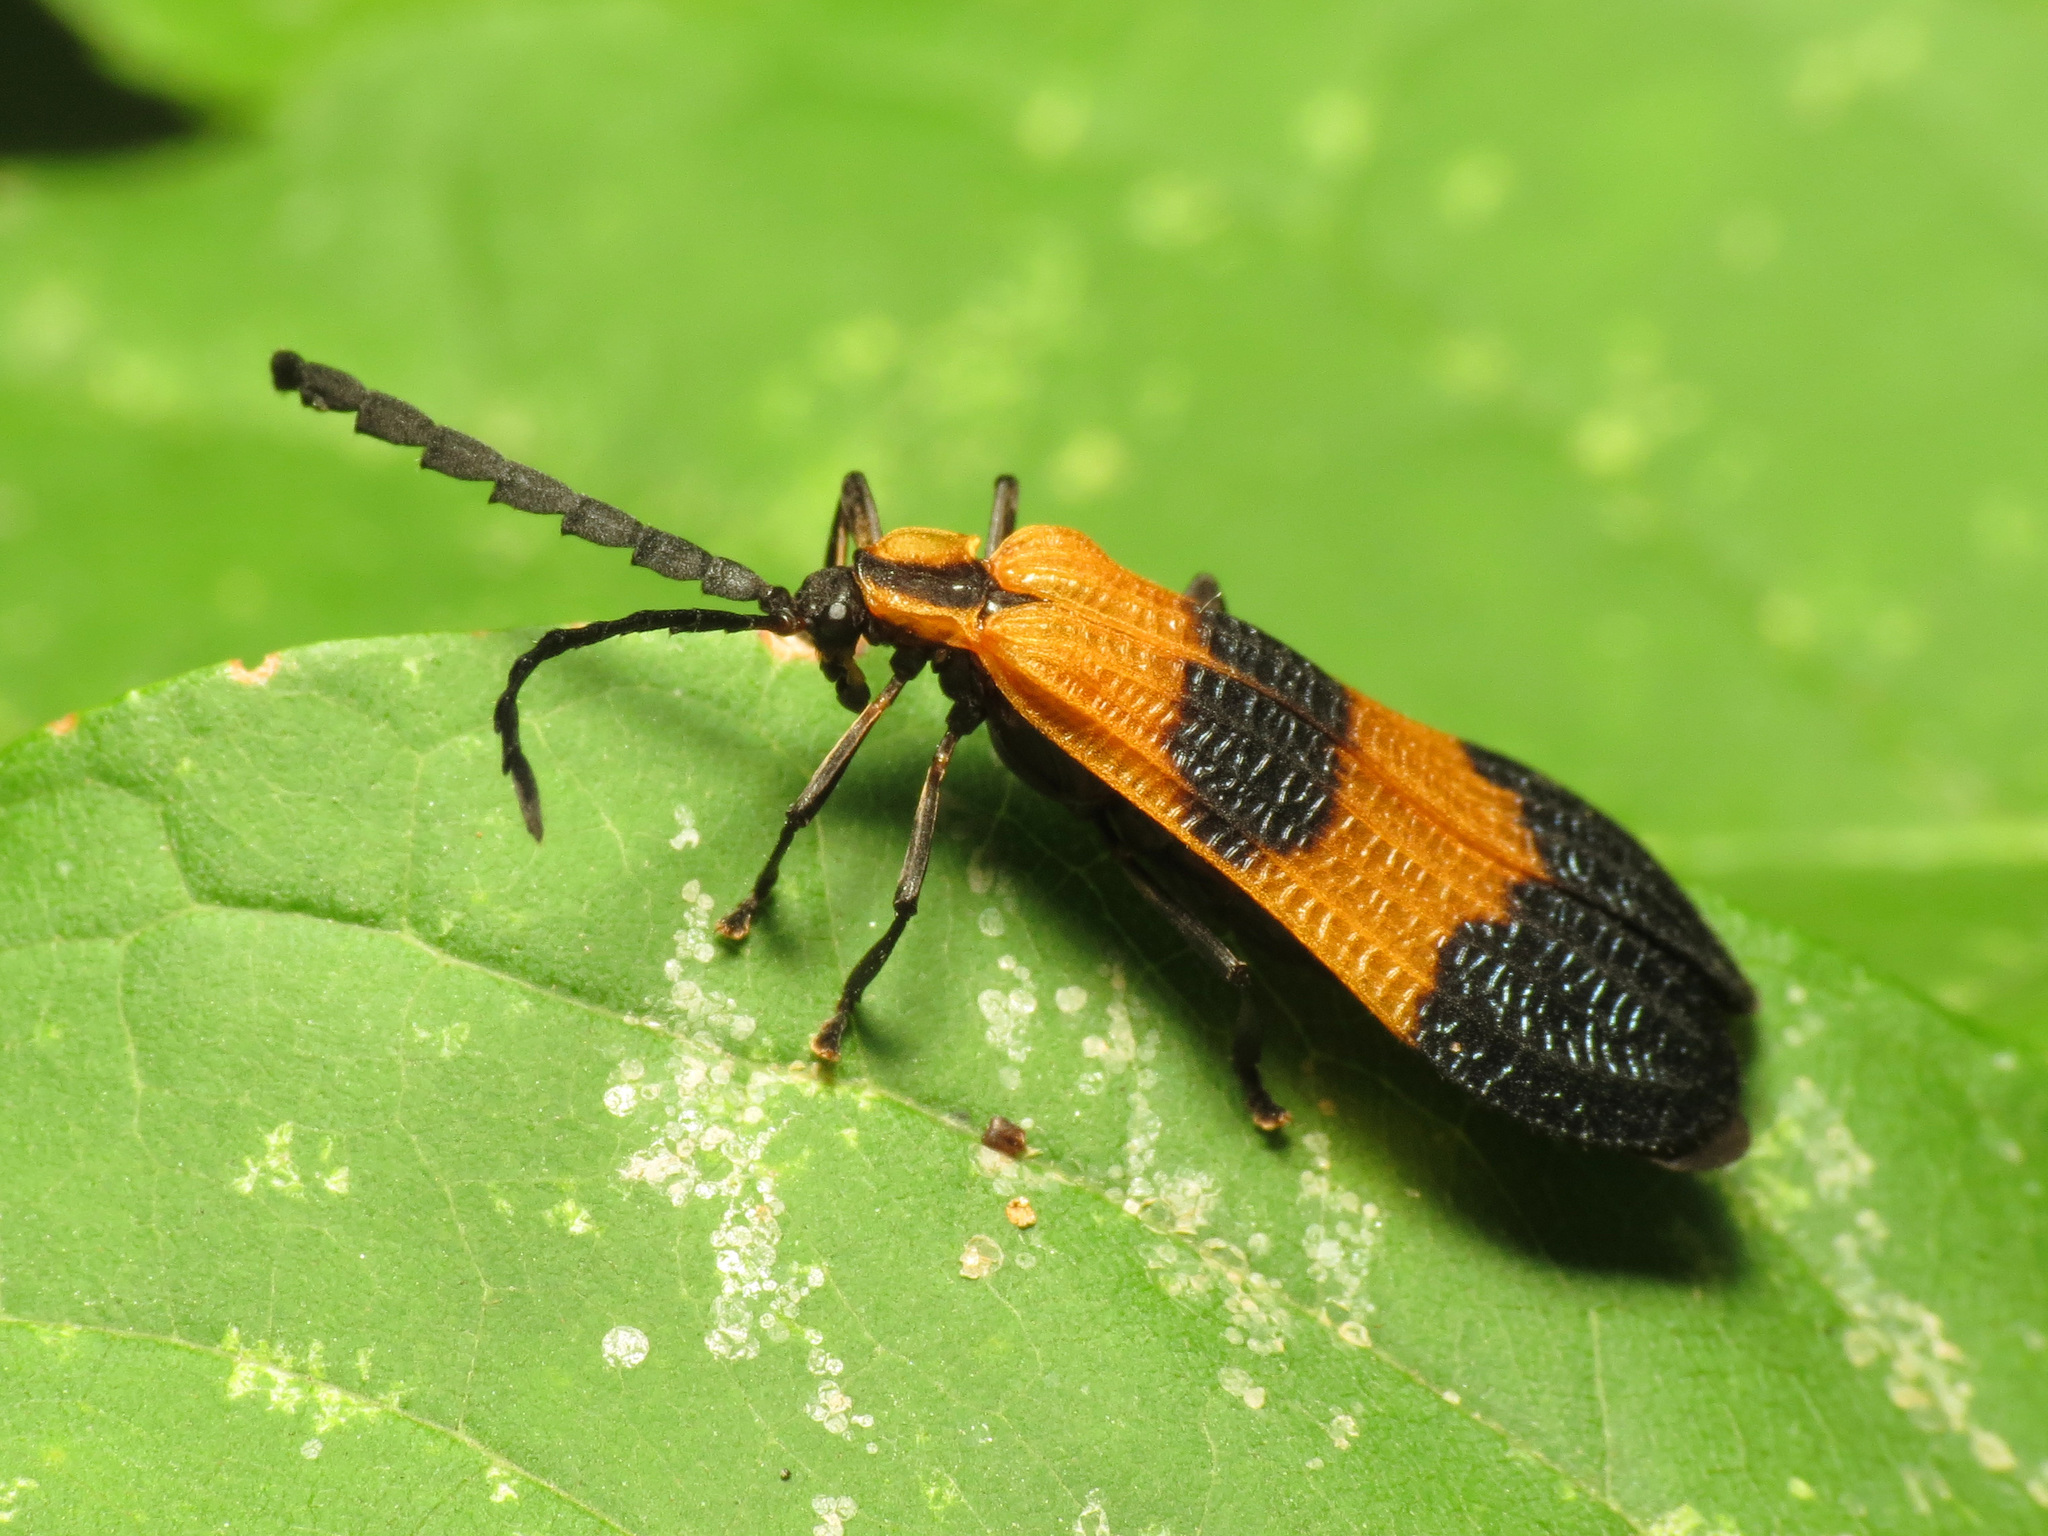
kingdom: Animalia
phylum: Arthropoda
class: Insecta
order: Coleoptera
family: Lycidae
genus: Calopteron
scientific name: Calopteron terminale
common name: End band net-winged beetle
